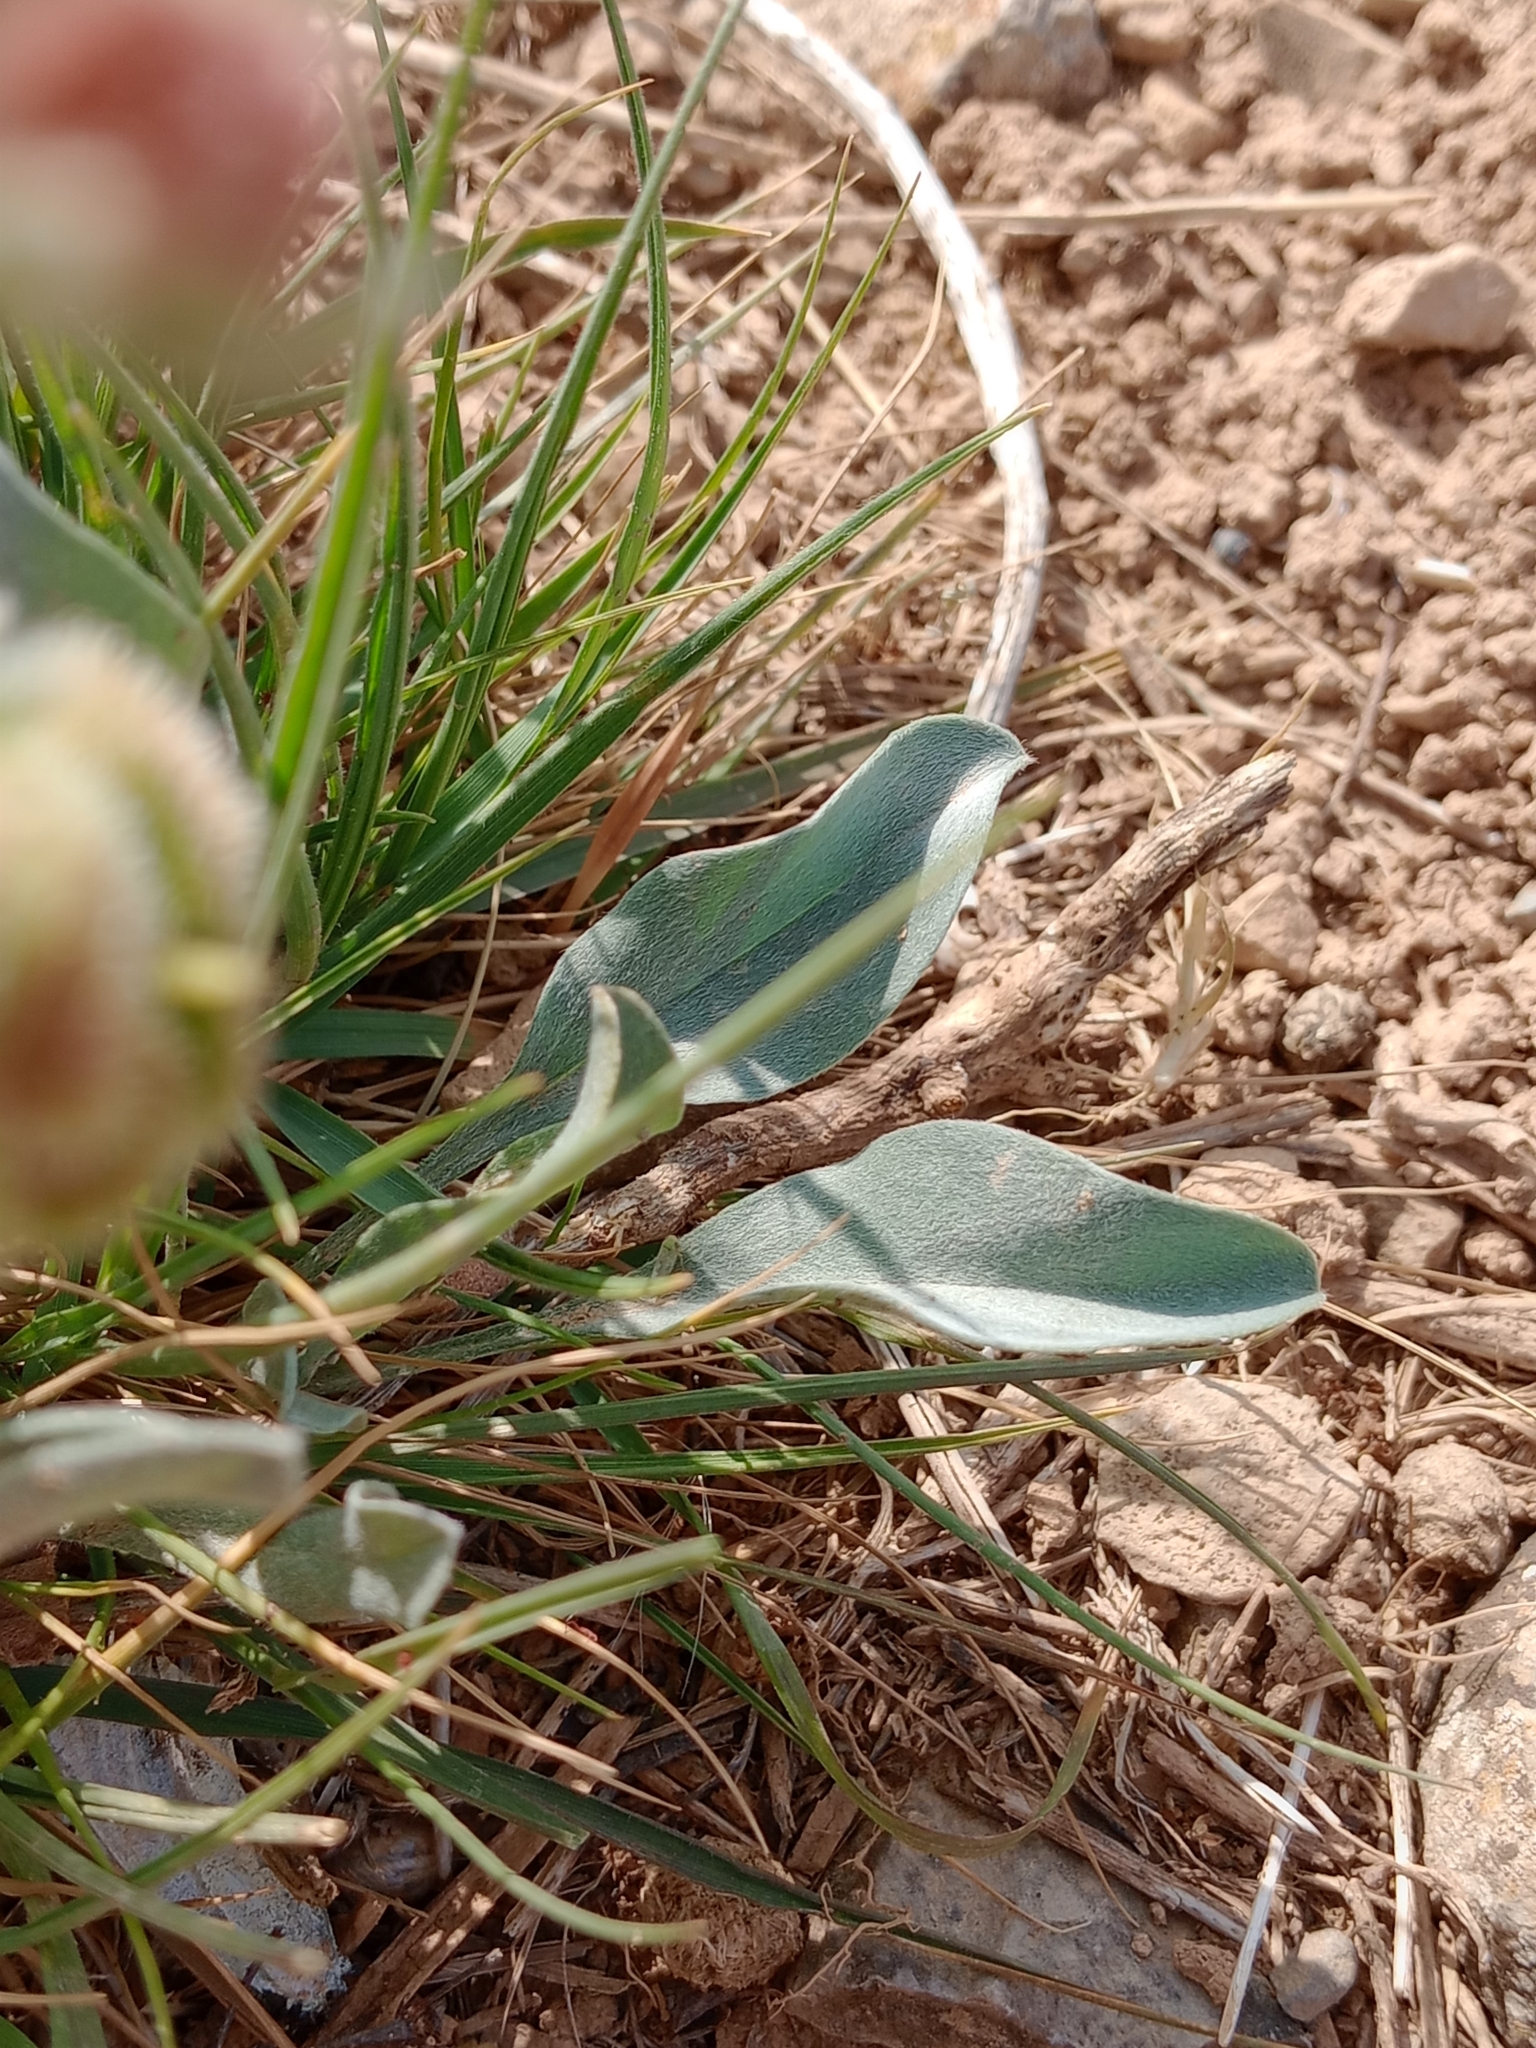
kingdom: Plantae
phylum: Tracheophyta
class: Magnoliopsida
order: Boraginales
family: Boraginaceae
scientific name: Boraginaceae
